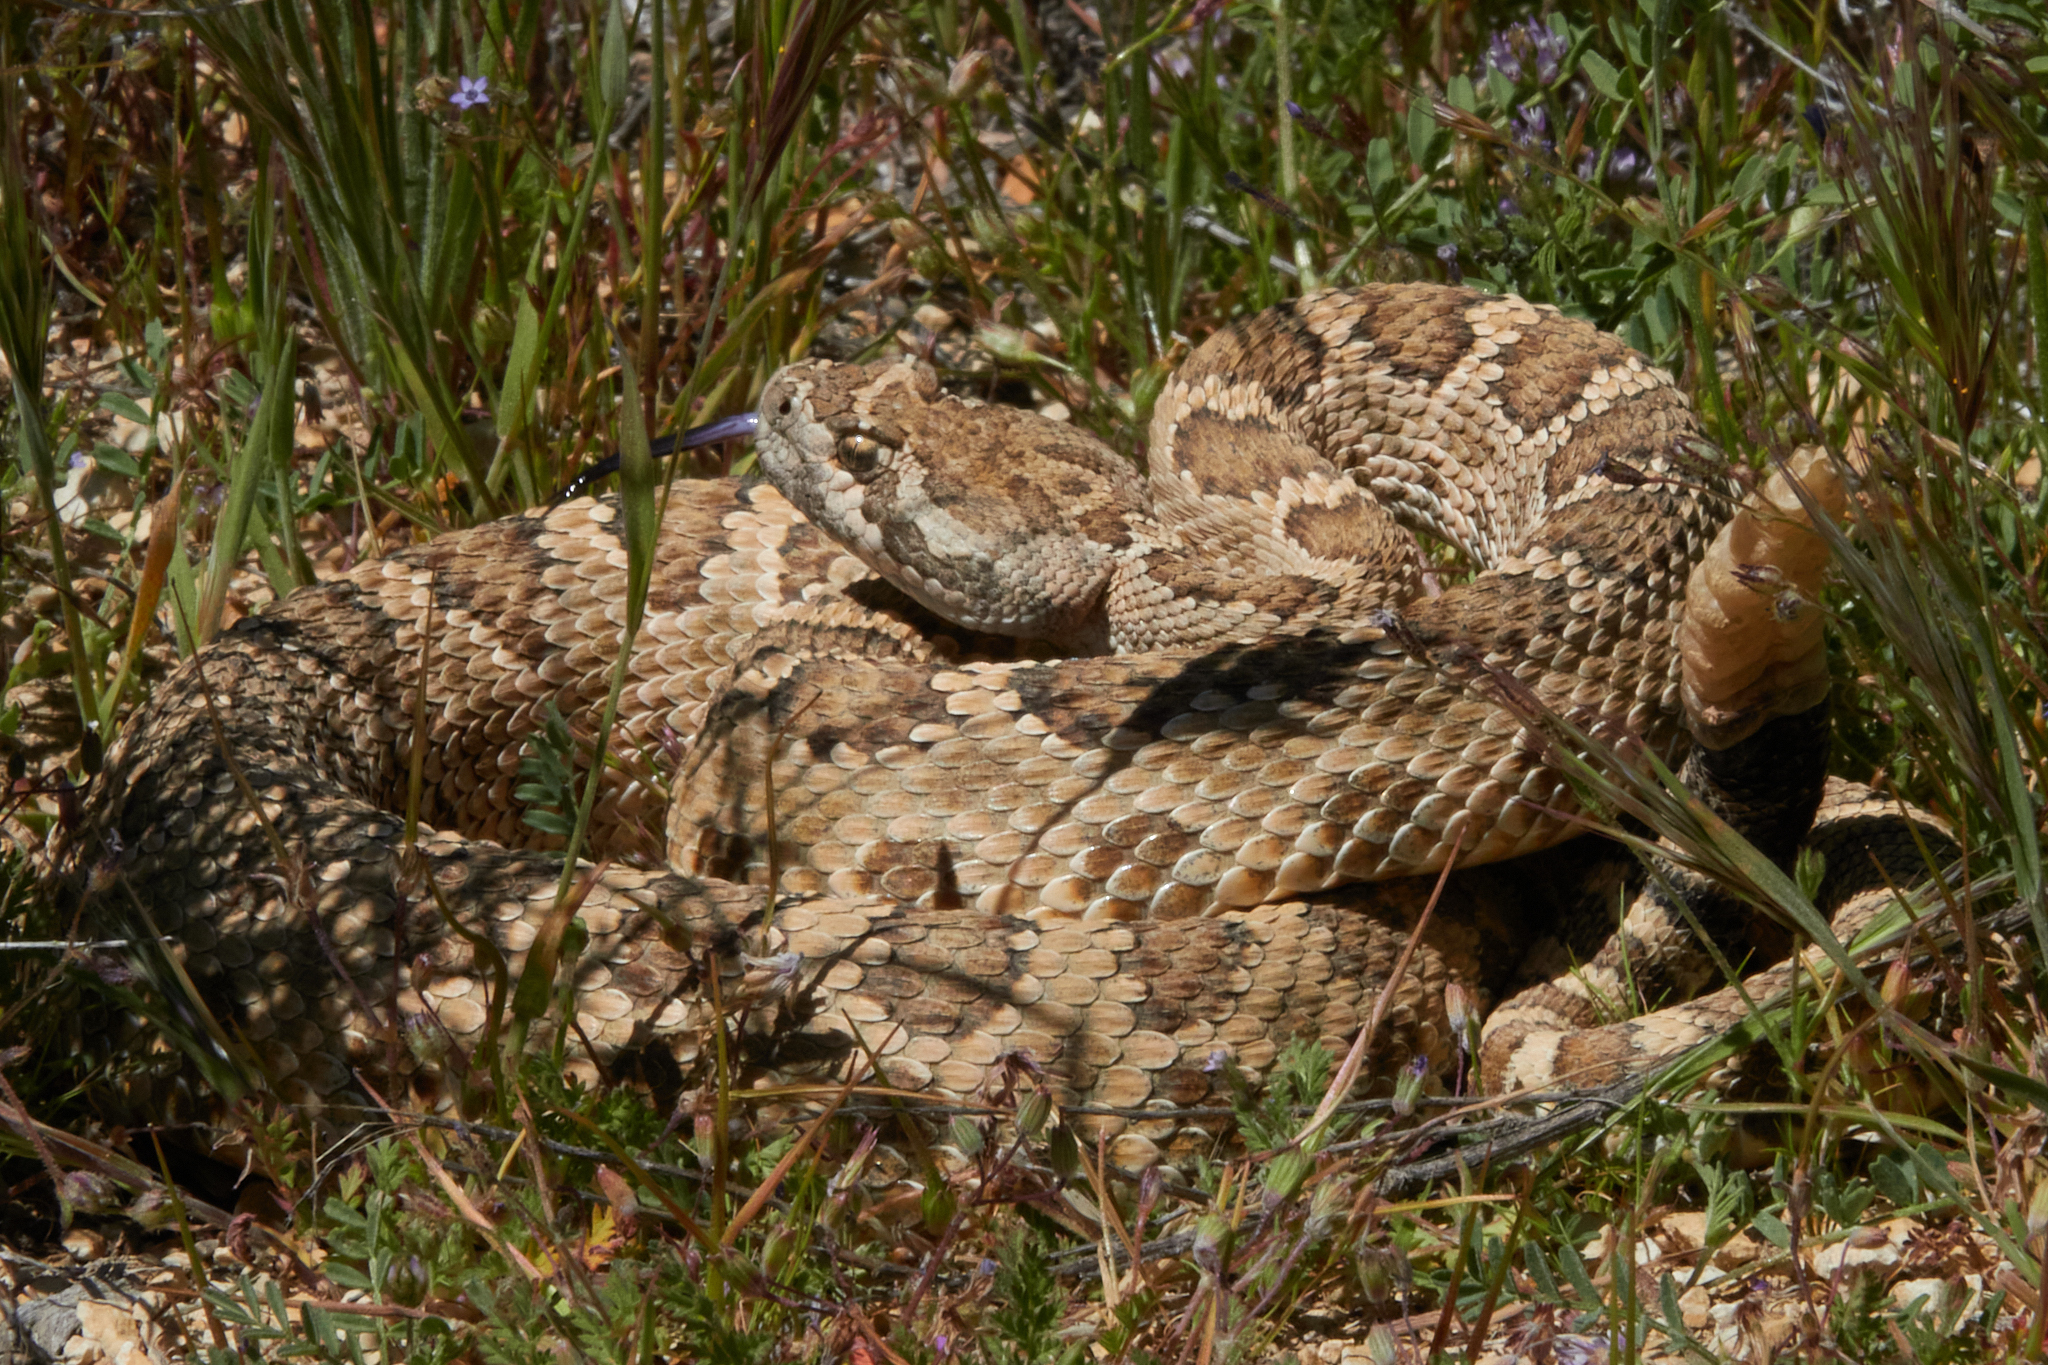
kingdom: Animalia
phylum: Chordata
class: Squamata
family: Viperidae
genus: Crotalus
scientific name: Crotalus oreganus
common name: Abyssus
